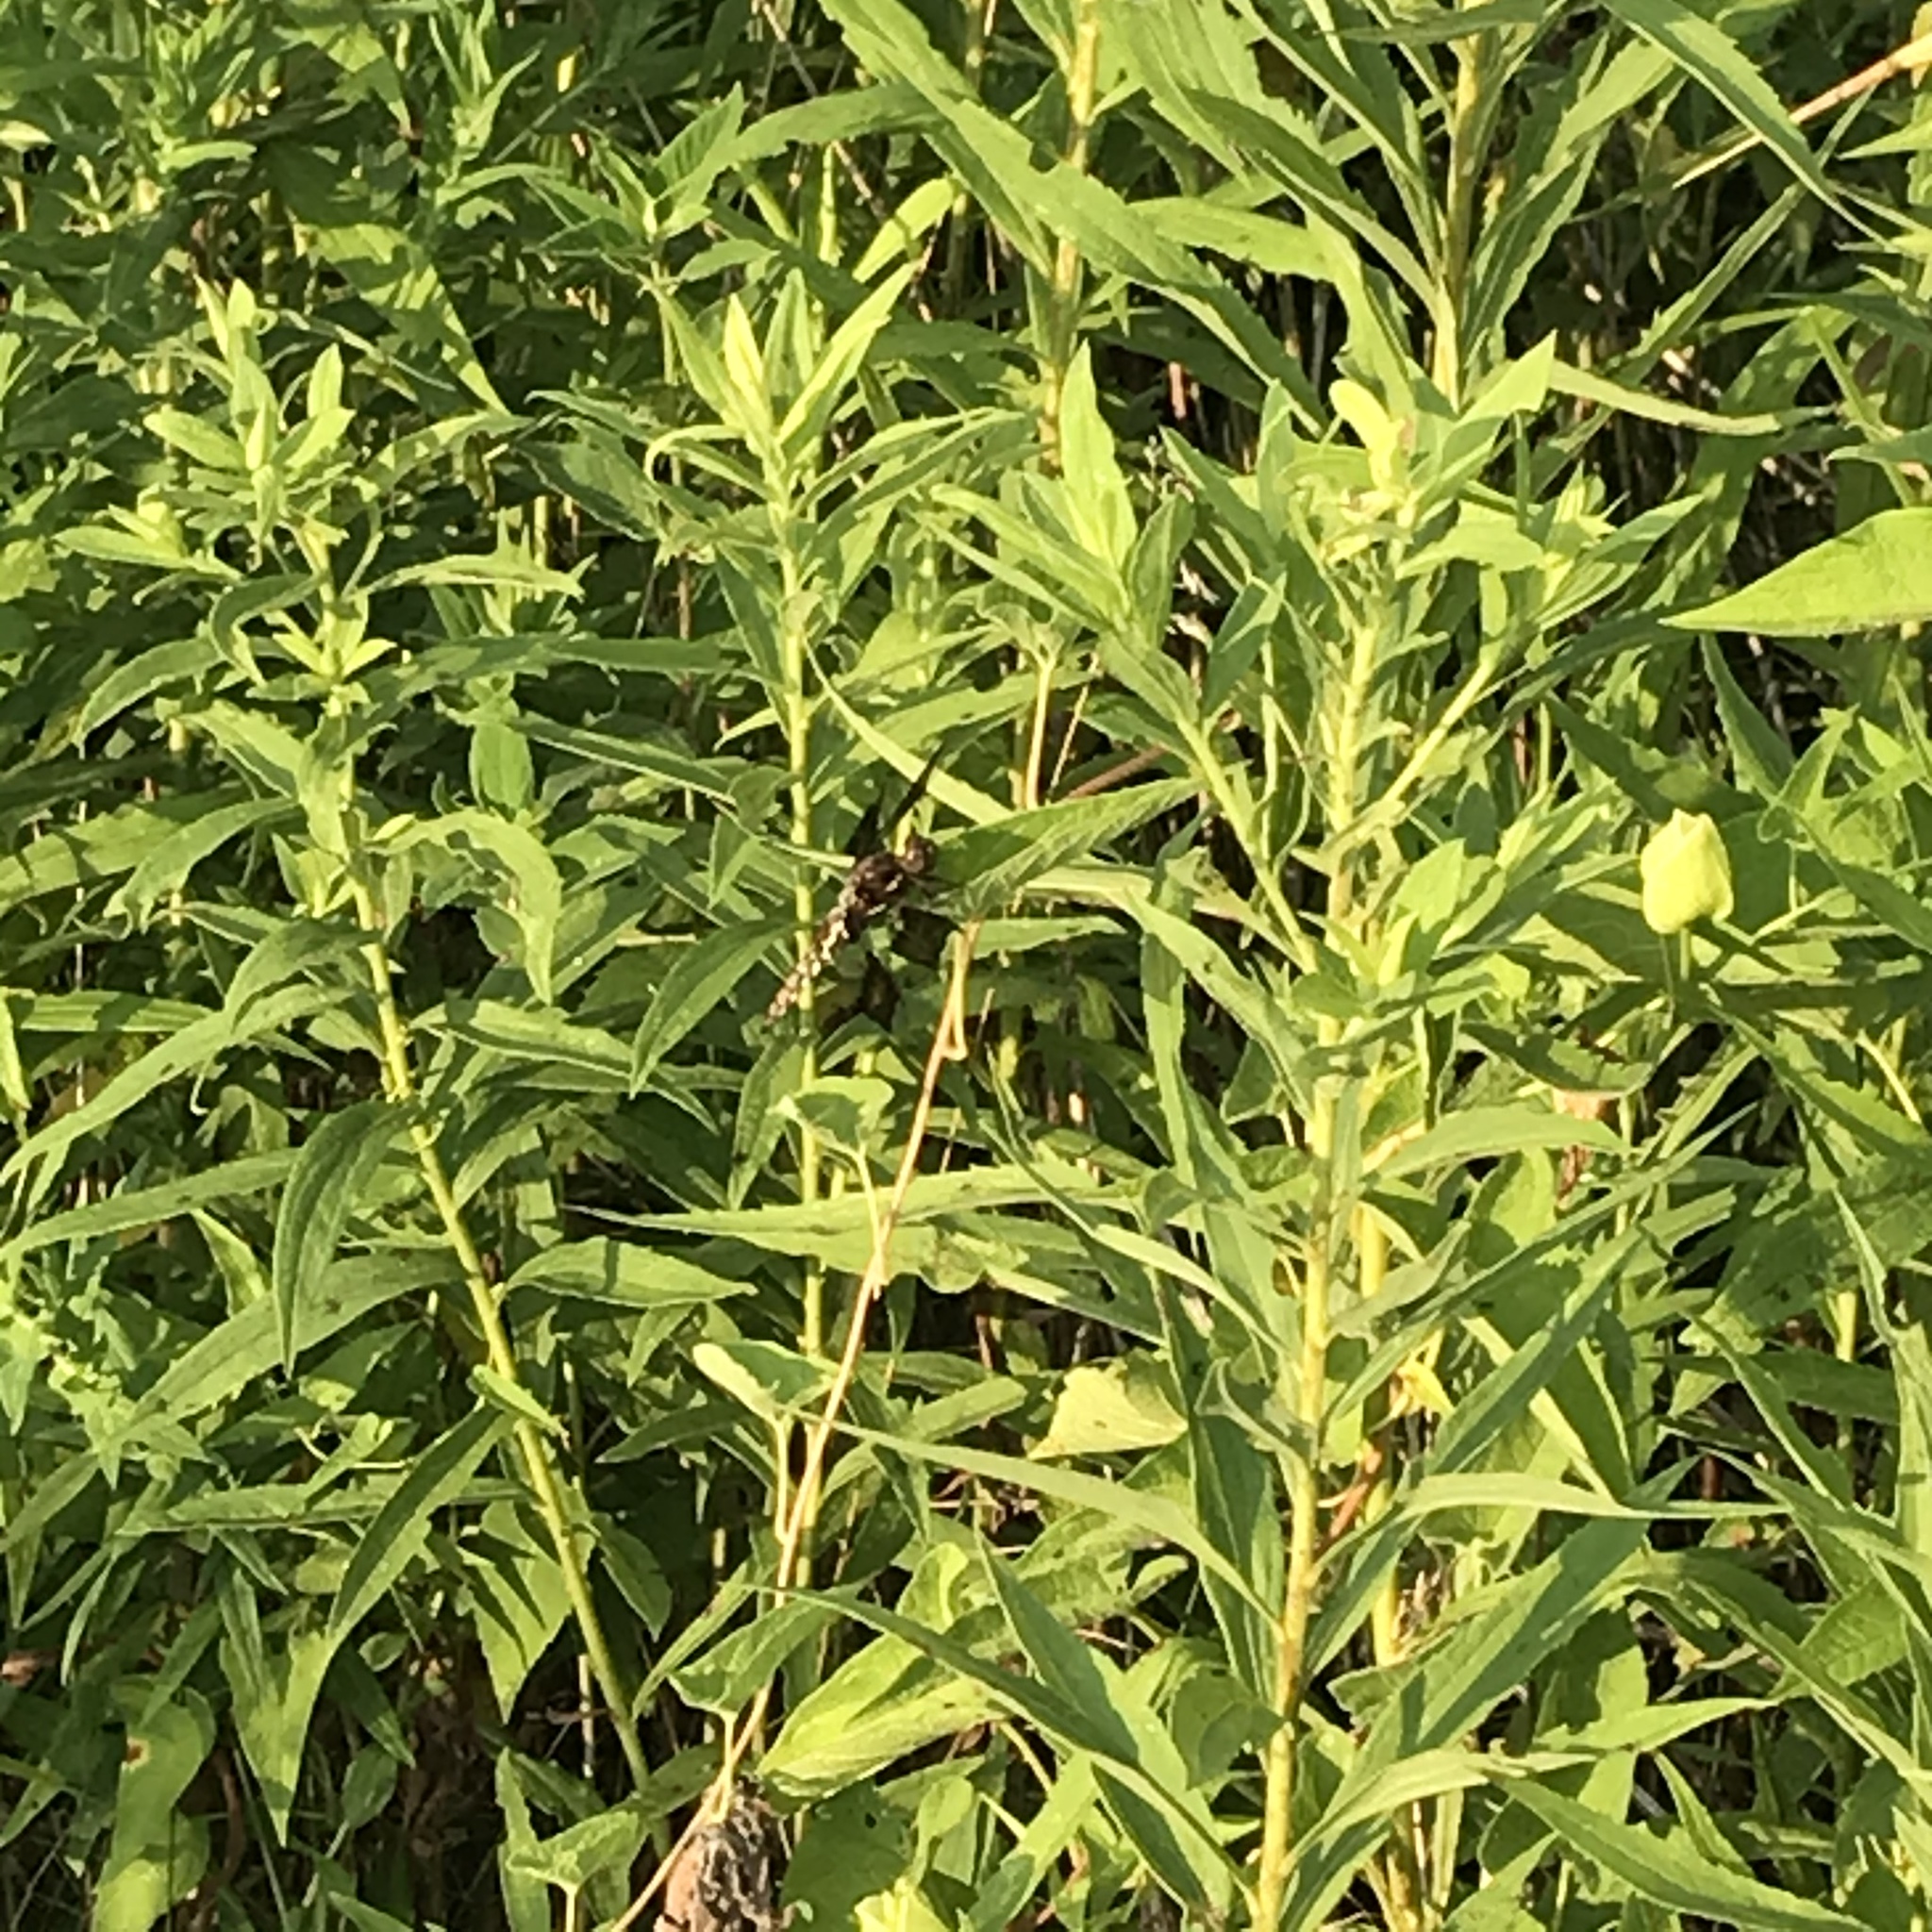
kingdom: Animalia
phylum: Arthropoda
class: Insecta
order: Odonata
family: Libellulidae
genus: Plathemis
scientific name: Plathemis lydia
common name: Common whitetail
